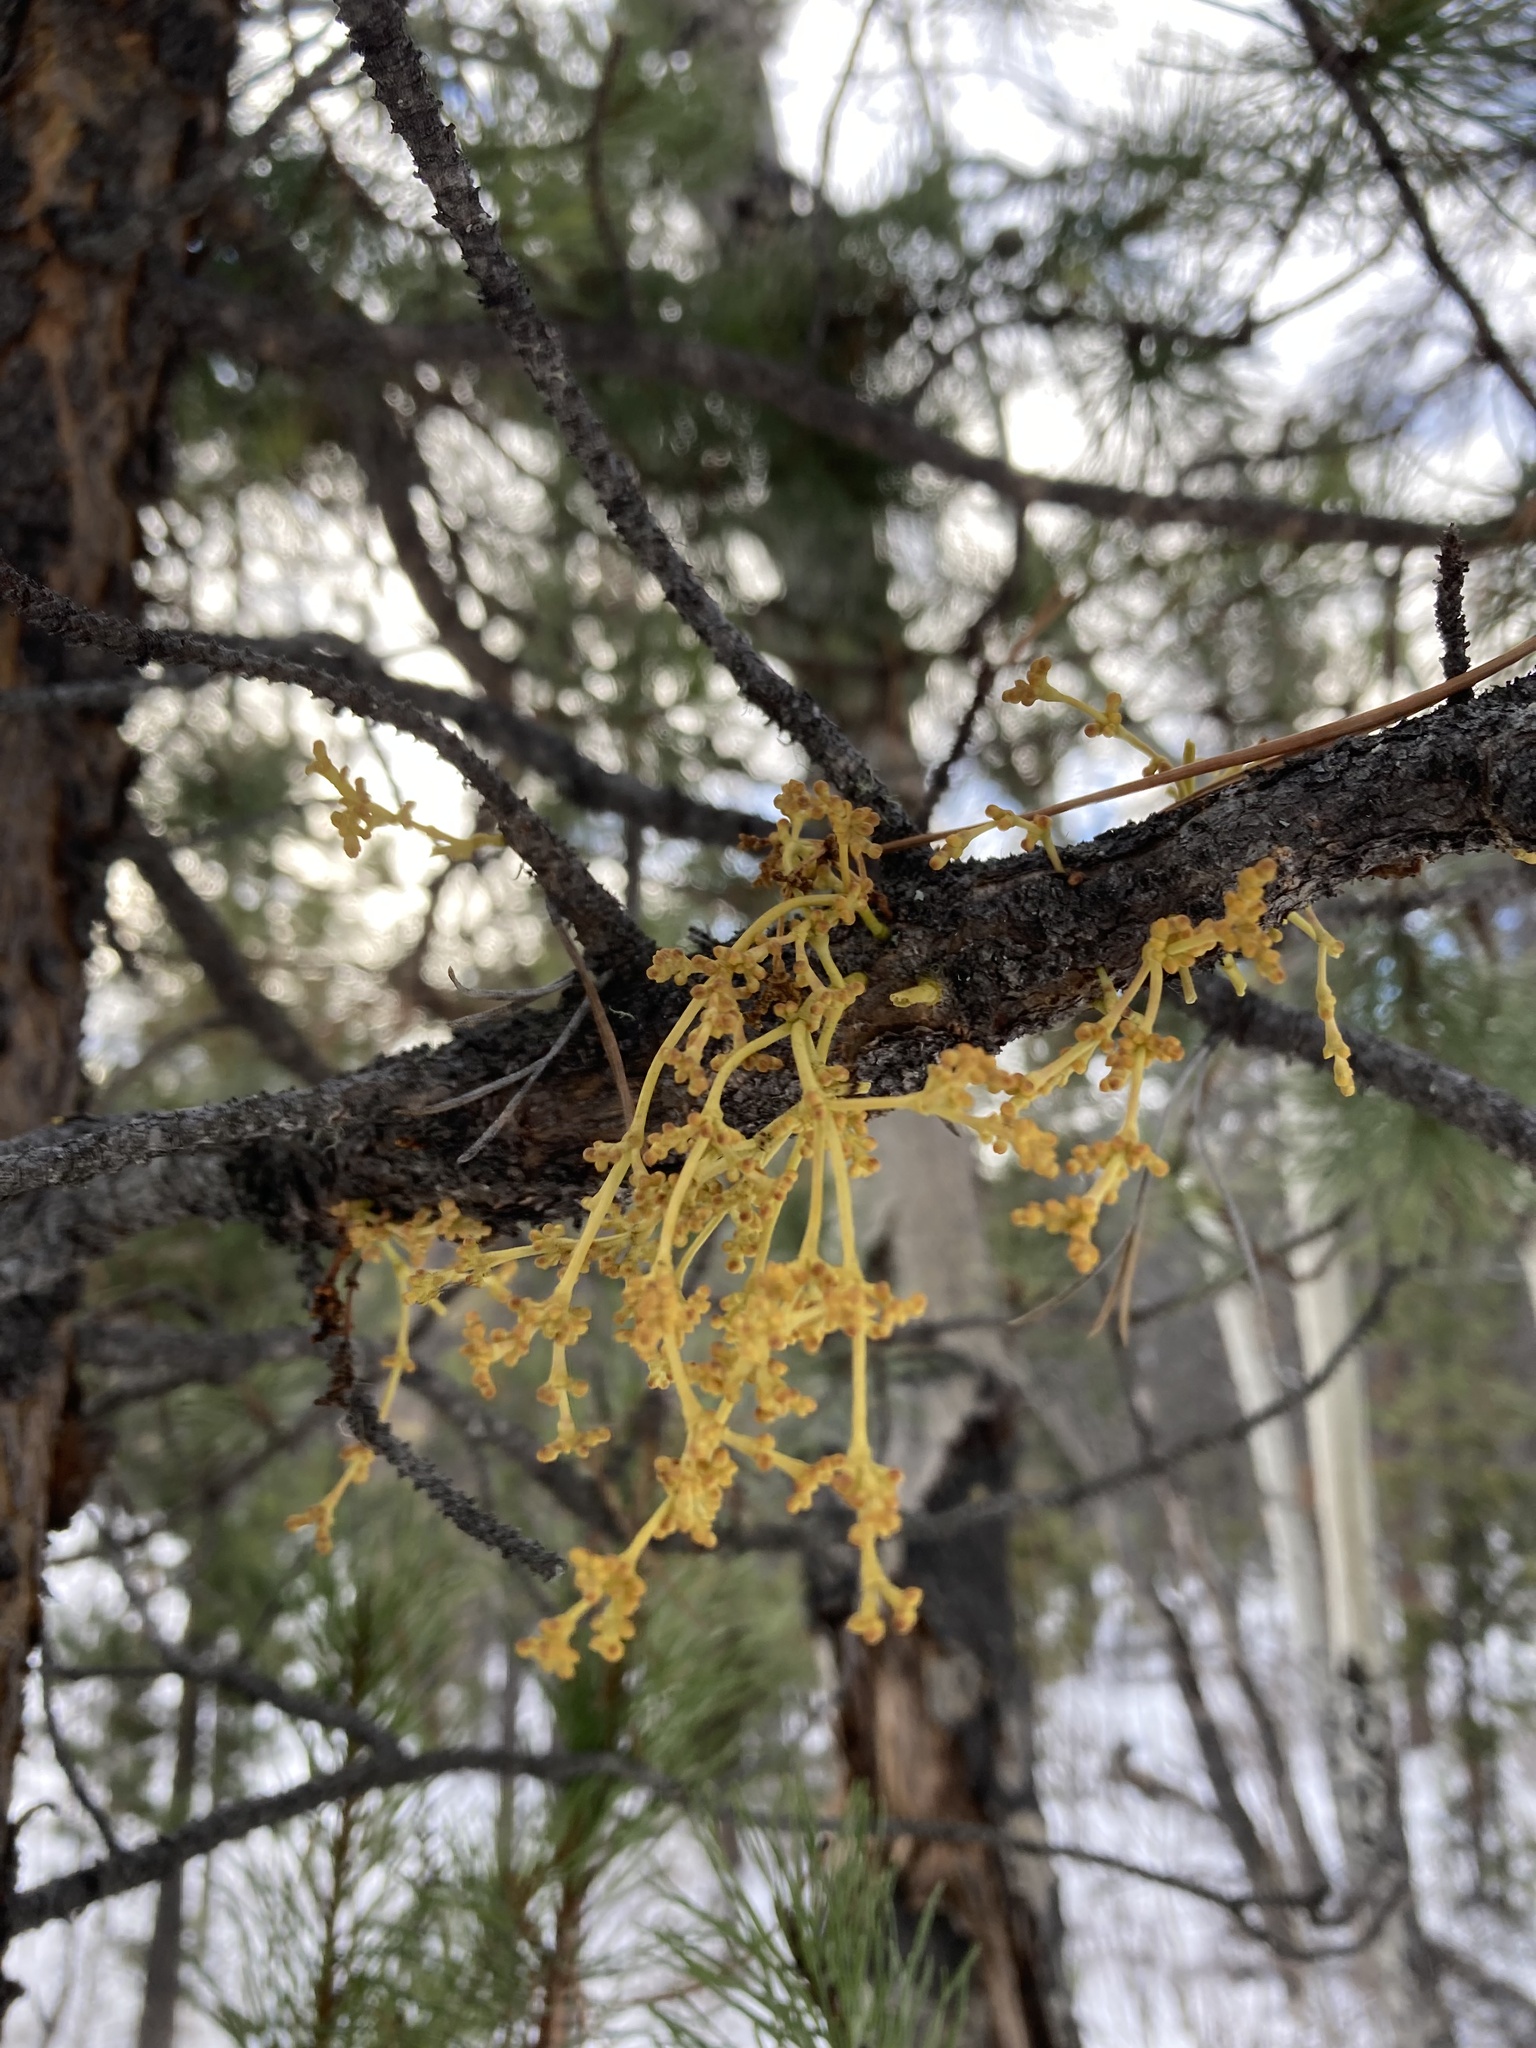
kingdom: Plantae
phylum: Tracheophyta
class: Magnoliopsida
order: Santalales
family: Viscaceae
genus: Arceuthobium
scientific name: Arceuthobium americanum
